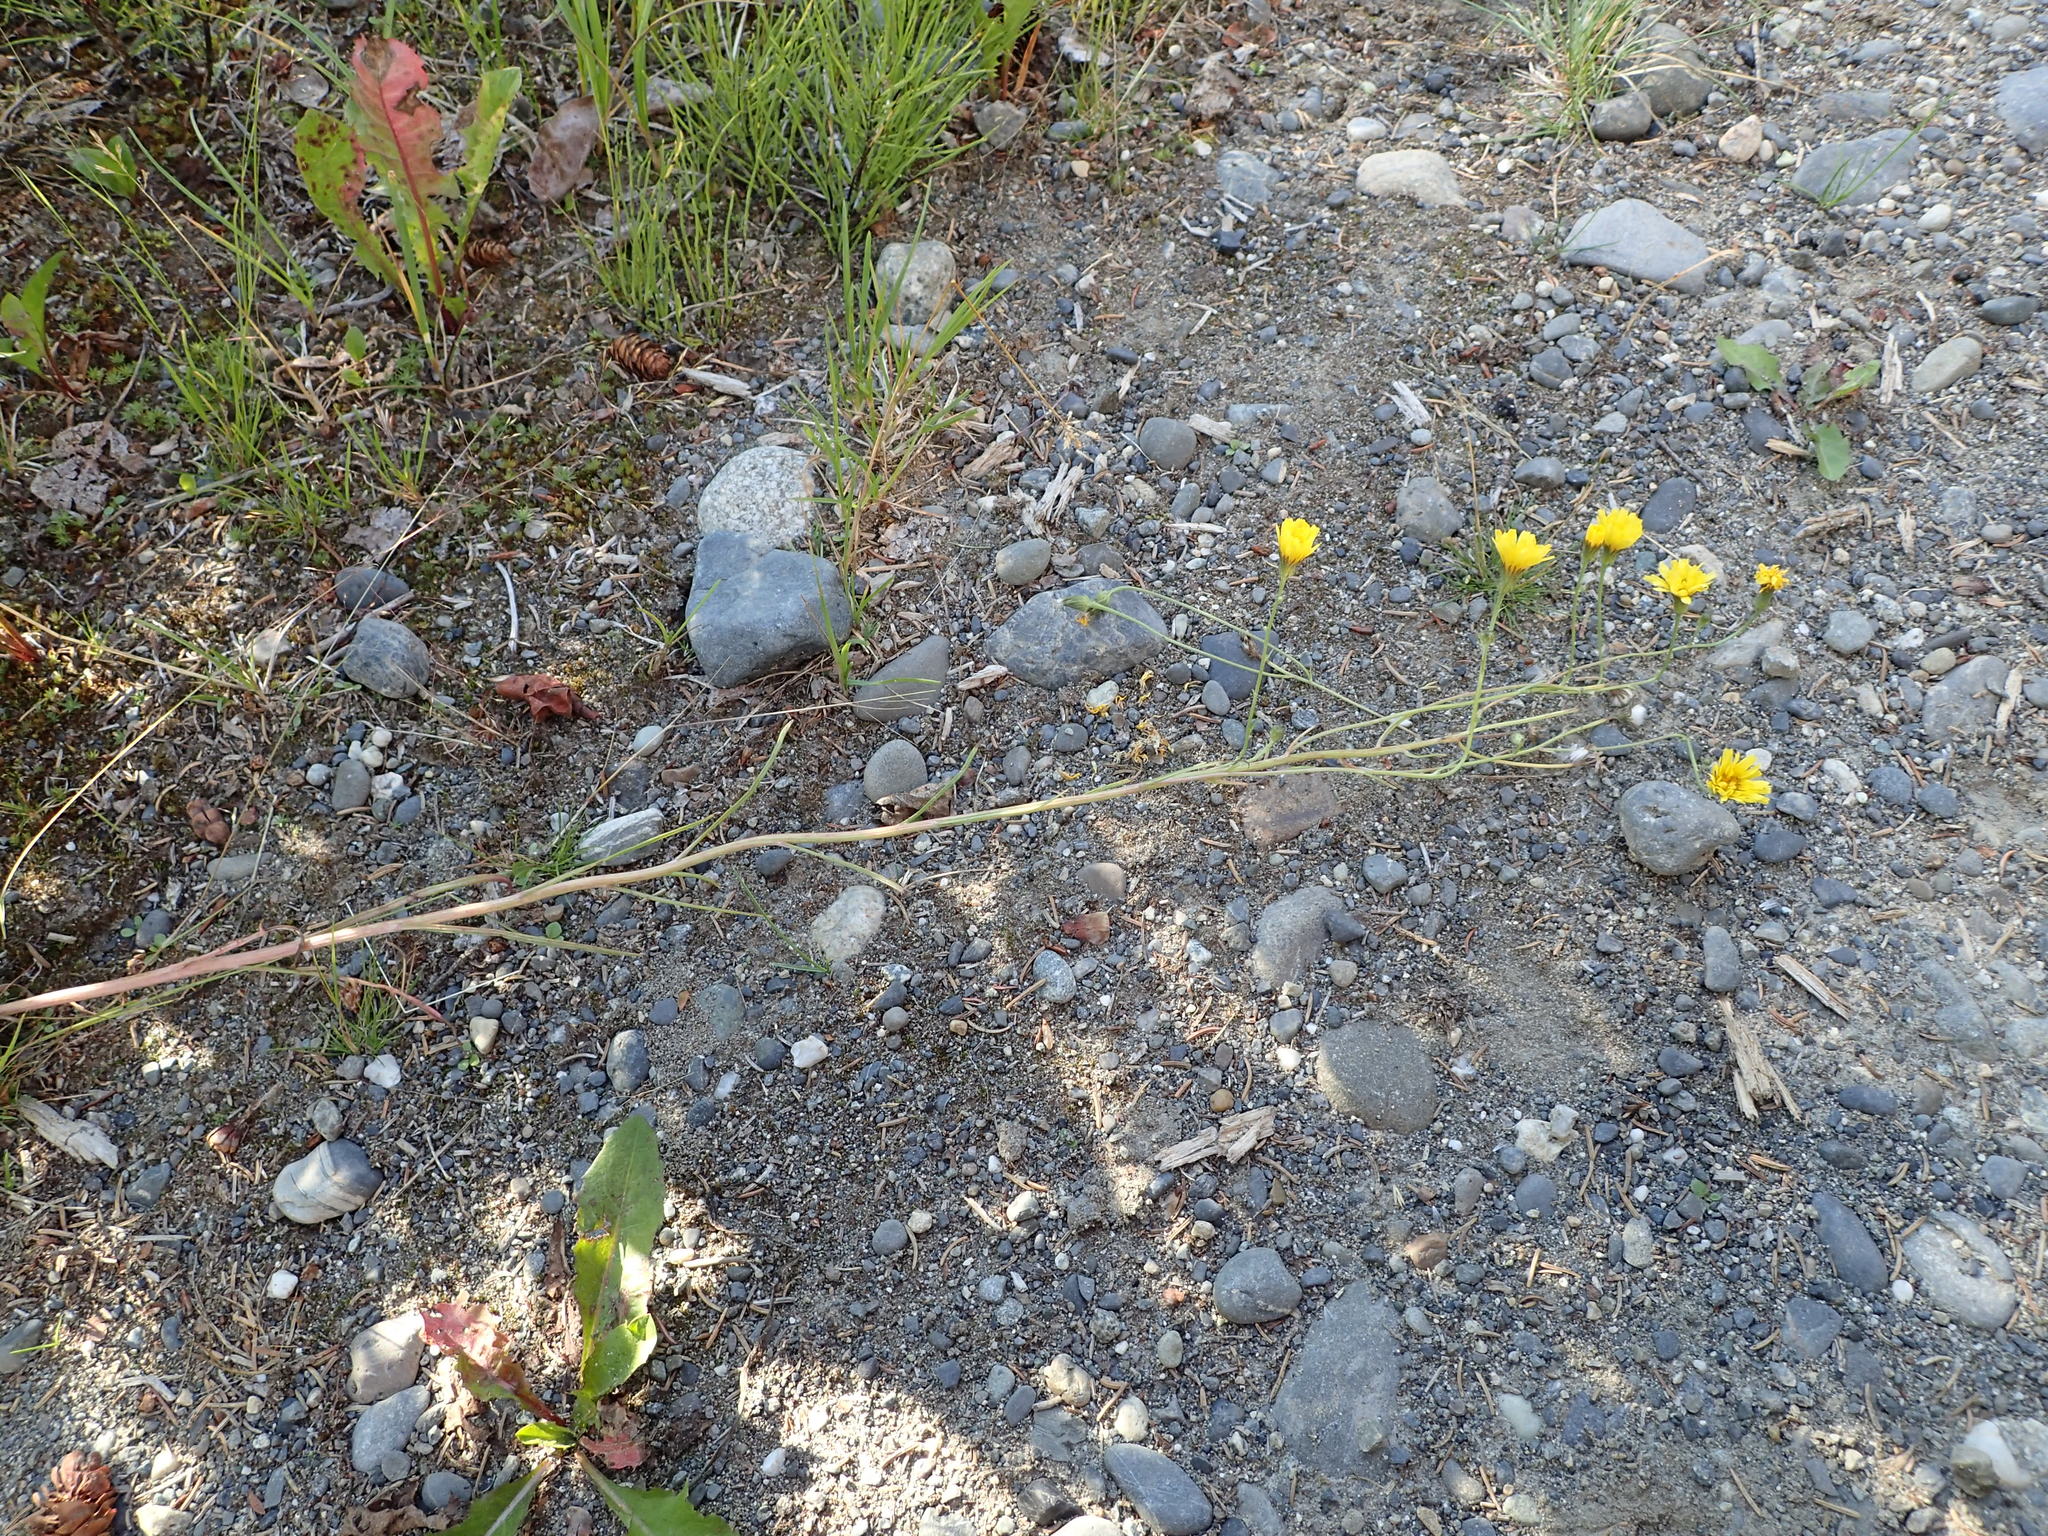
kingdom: Plantae
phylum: Tracheophyta
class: Magnoliopsida
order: Asterales
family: Asteraceae
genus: Crepis
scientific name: Crepis tectorum
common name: Narrow-leaved hawk's-beard
